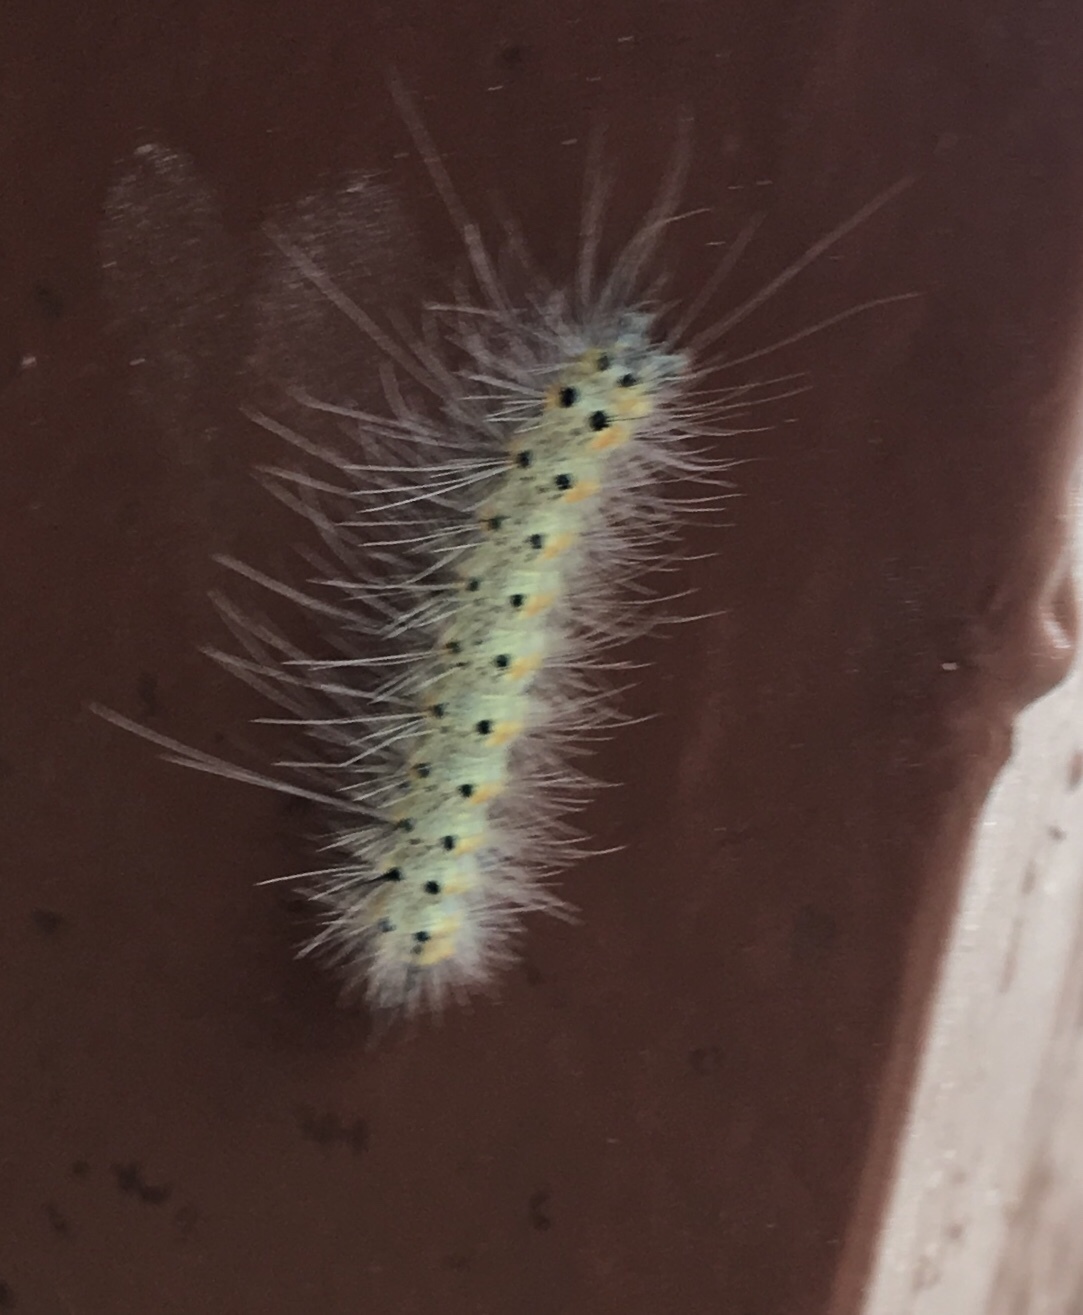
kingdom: Animalia
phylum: Arthropoda
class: Insecta
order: Lepidoptera
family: Erebidae
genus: Hyphantria
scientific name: Hyphantria cunea
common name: American white moth
